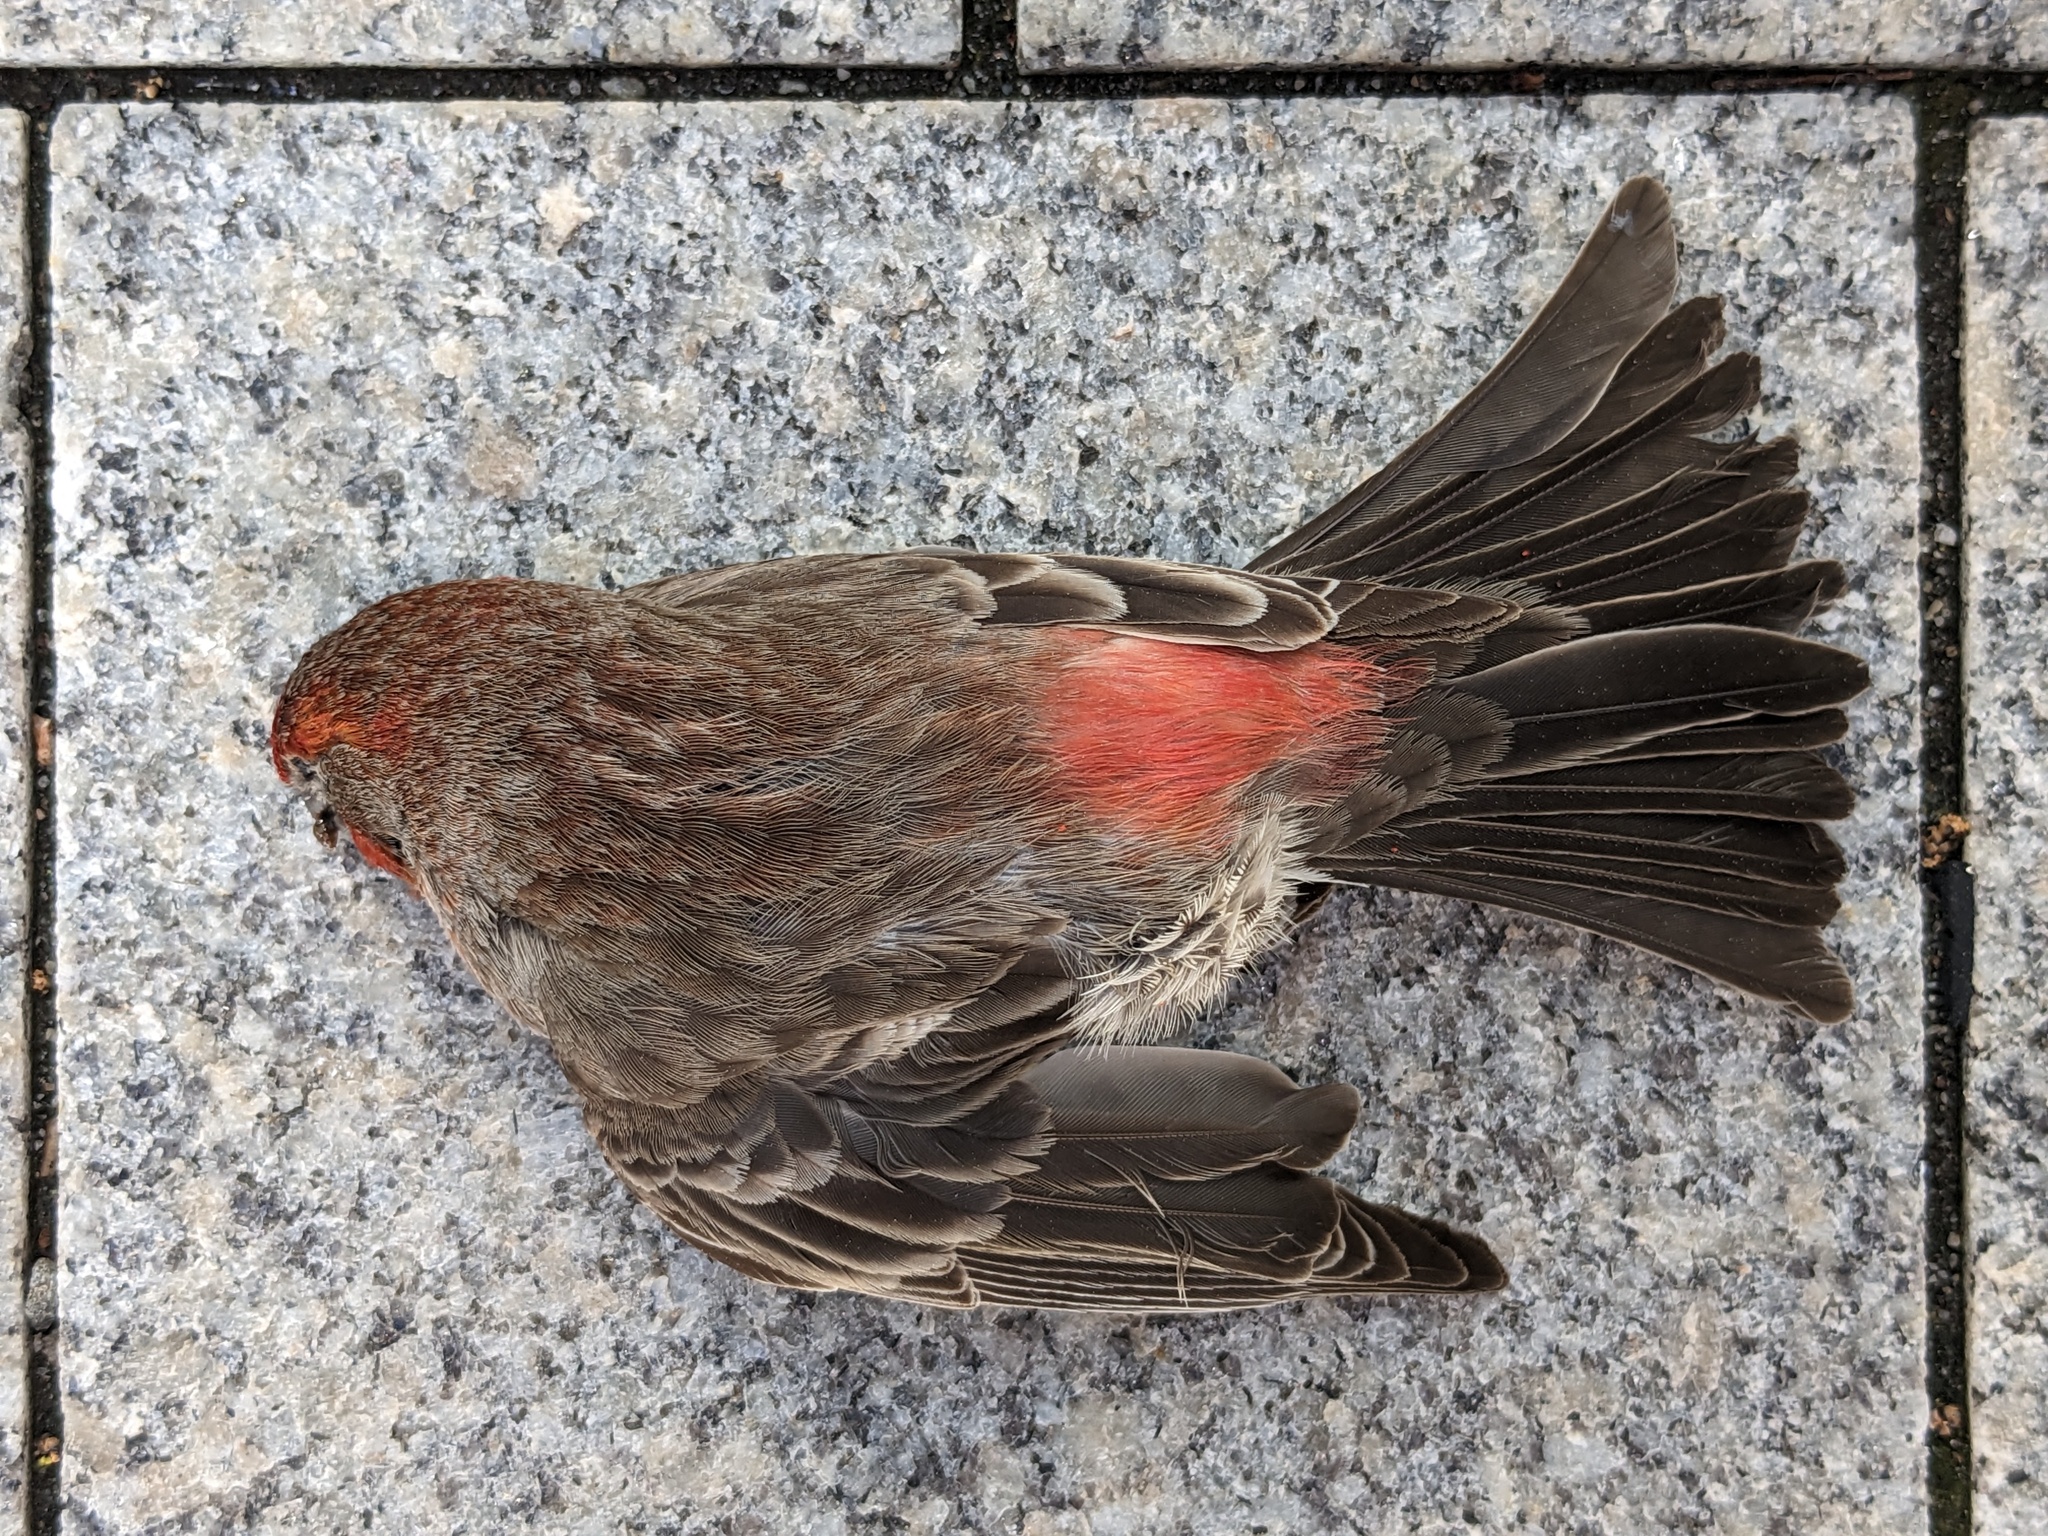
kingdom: Animalia
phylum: Chordata
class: Aves
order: Passeriformes
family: Fringillidae
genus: Haemorhous
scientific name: Haemorhous mexicanus
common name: House finch
